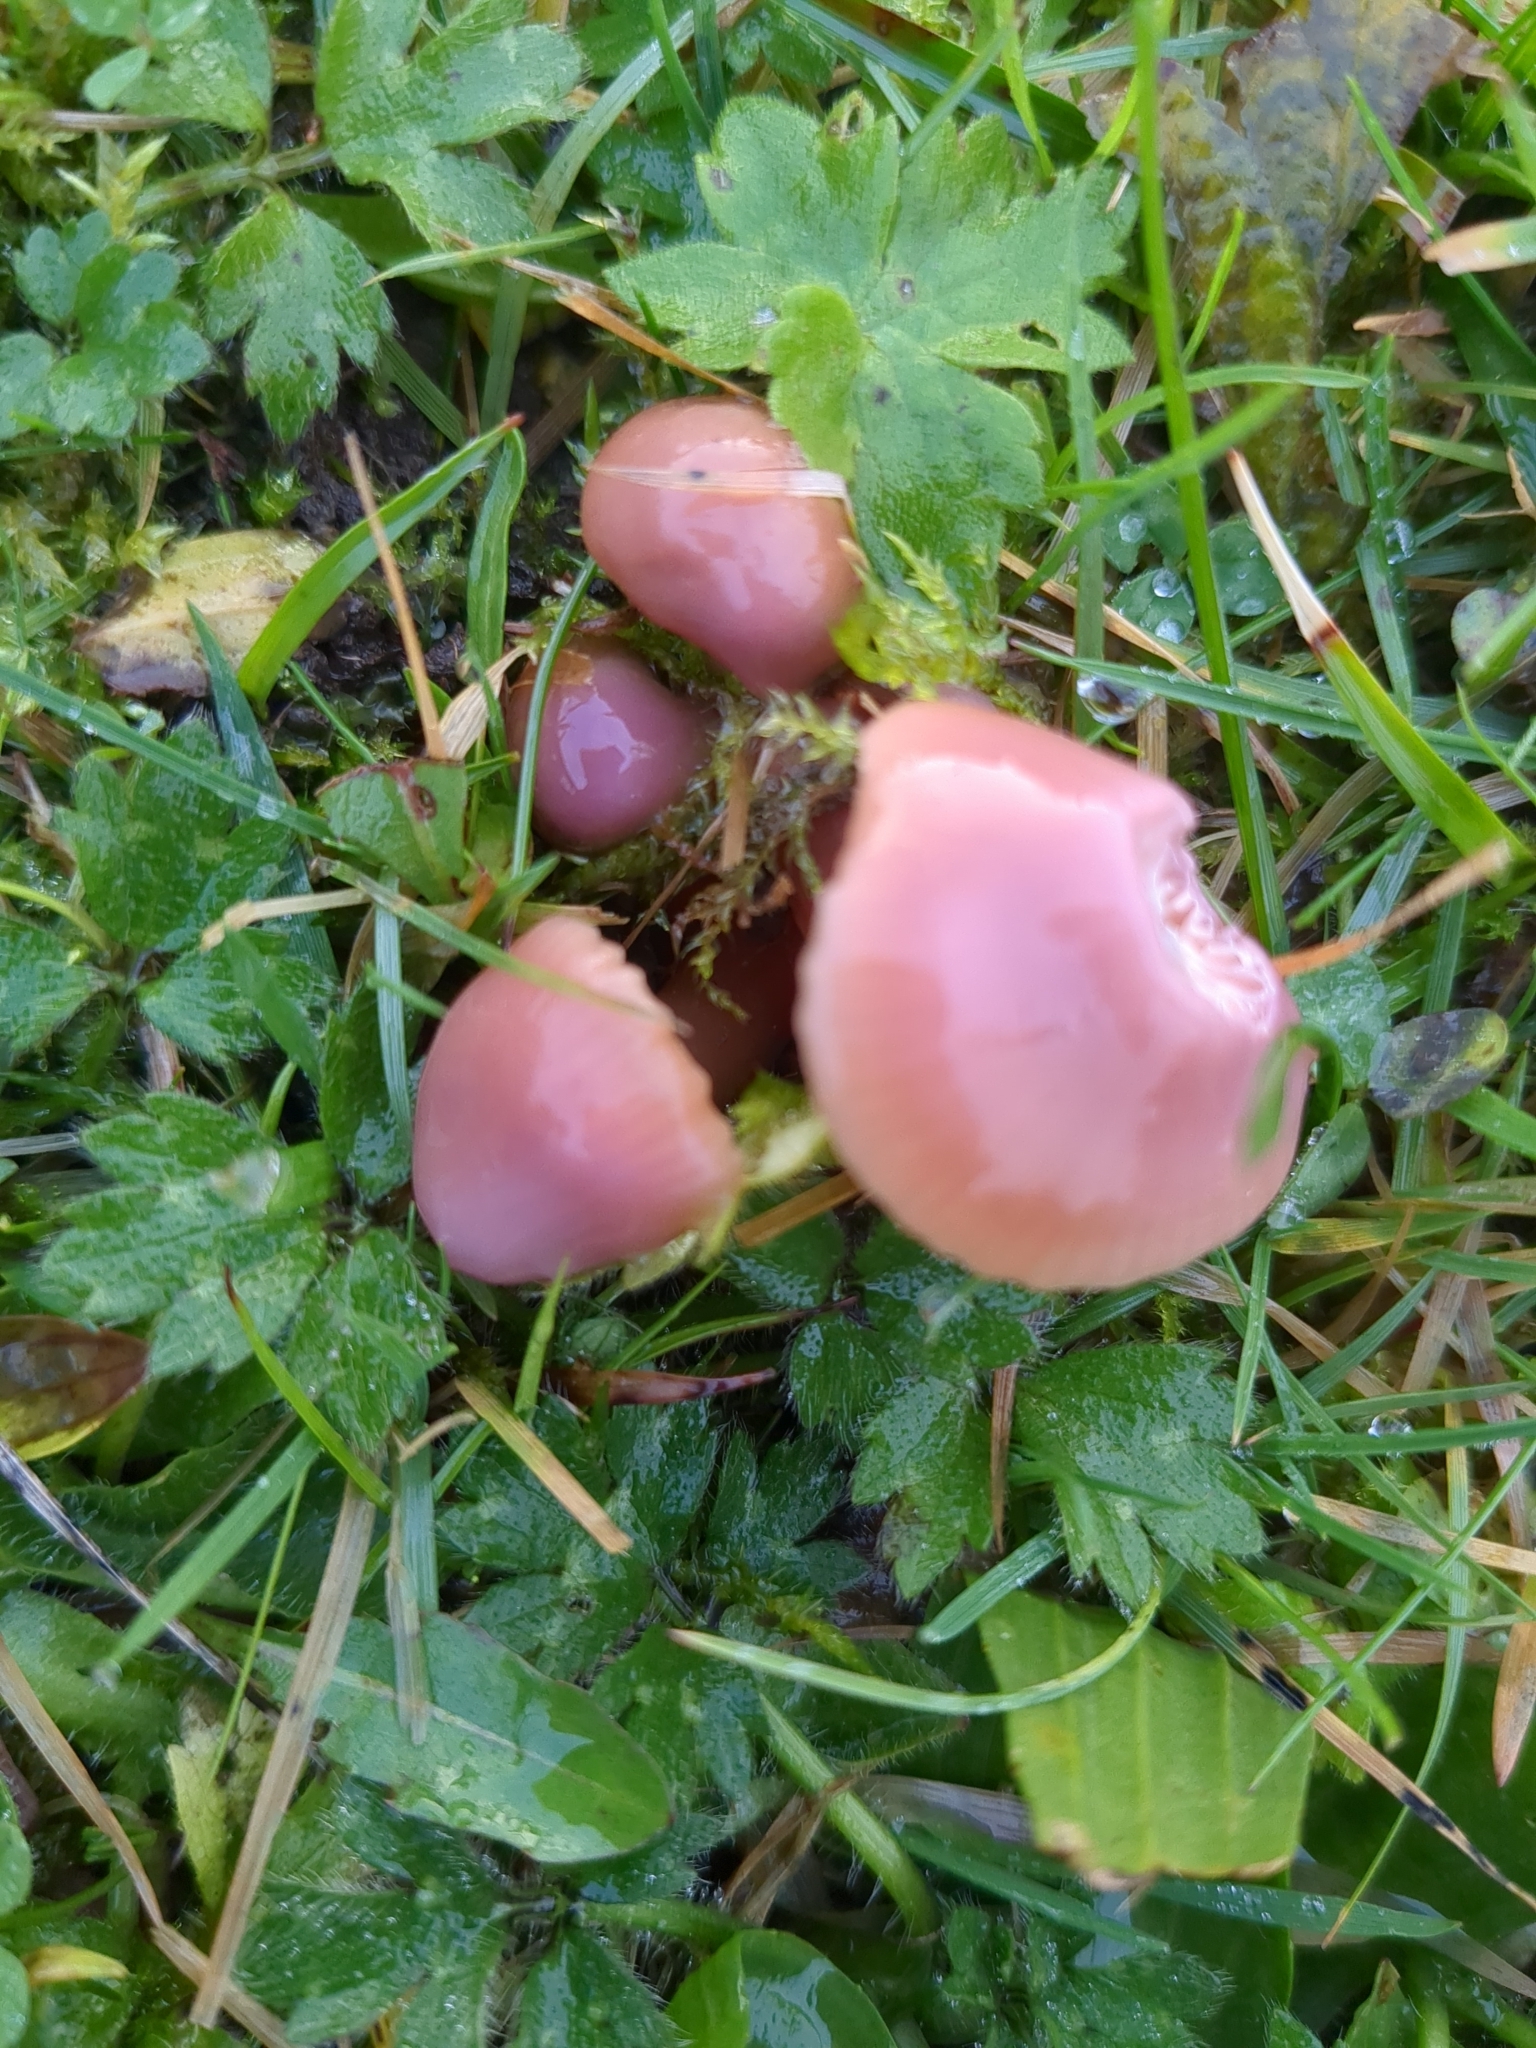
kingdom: Fungi
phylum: Basidiomycota
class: Agaricomycetes
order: Agaricales
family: Hygrophoraceae
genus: Gliophorus
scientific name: Gliophorus reginae
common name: Jubilee waxcap
